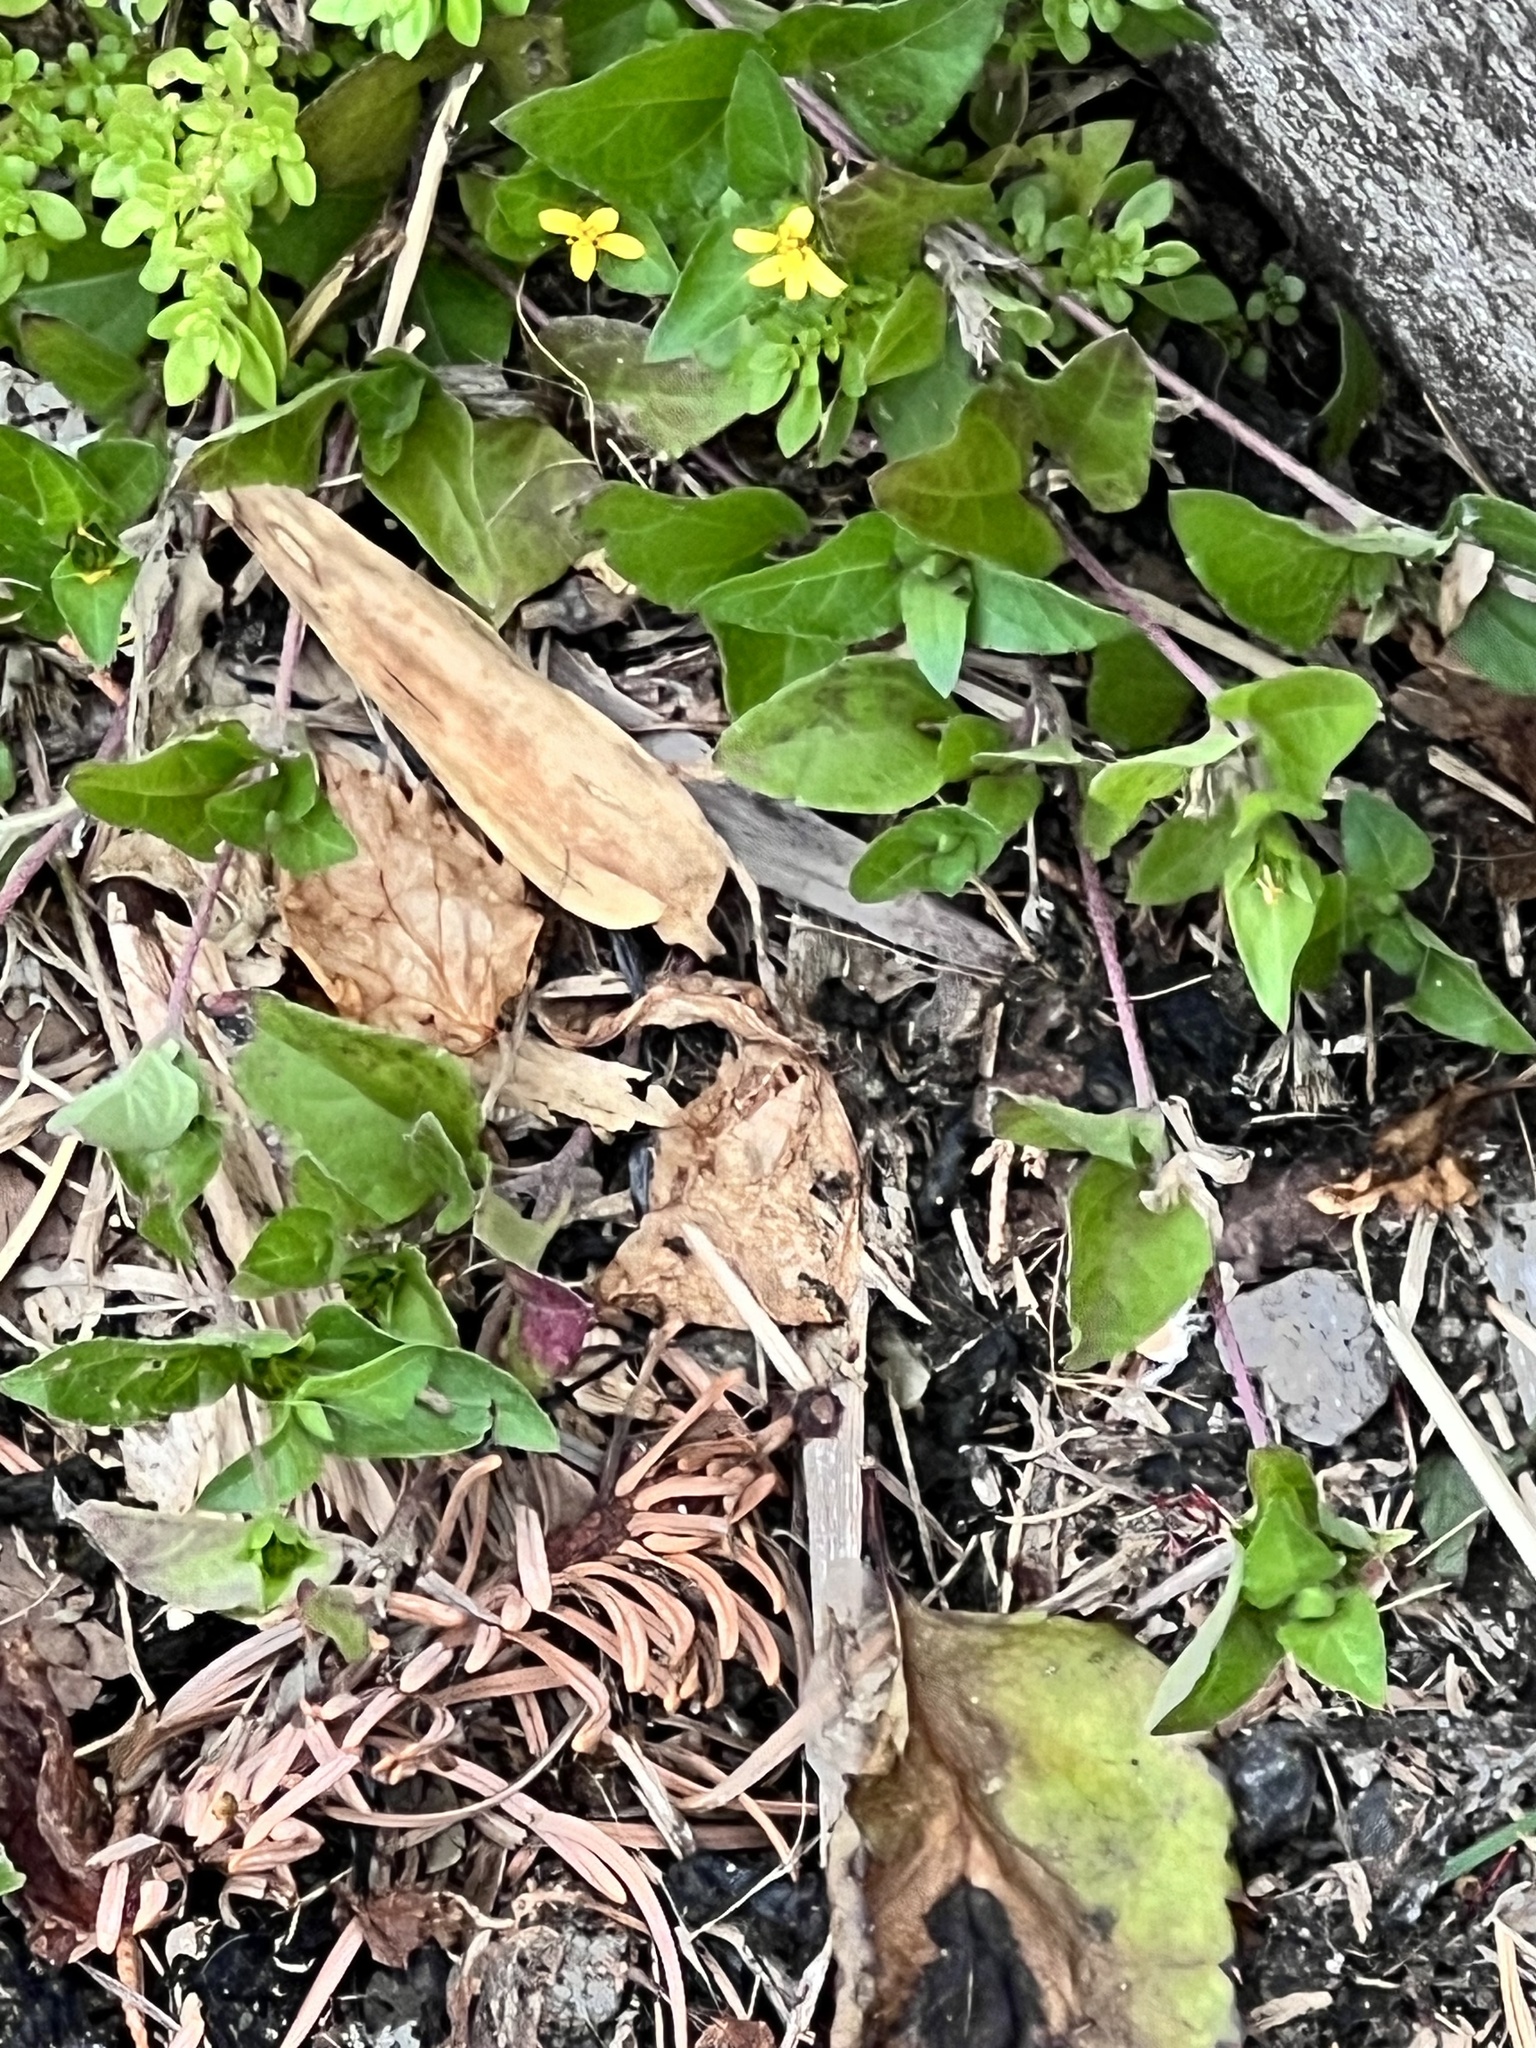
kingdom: Plantae
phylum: Tracheophyta
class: Magnoliopsida
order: Asterales
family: Asteraceae
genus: Calyptocarpus
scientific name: Calyptocarpus vialis
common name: Straggler daisy
